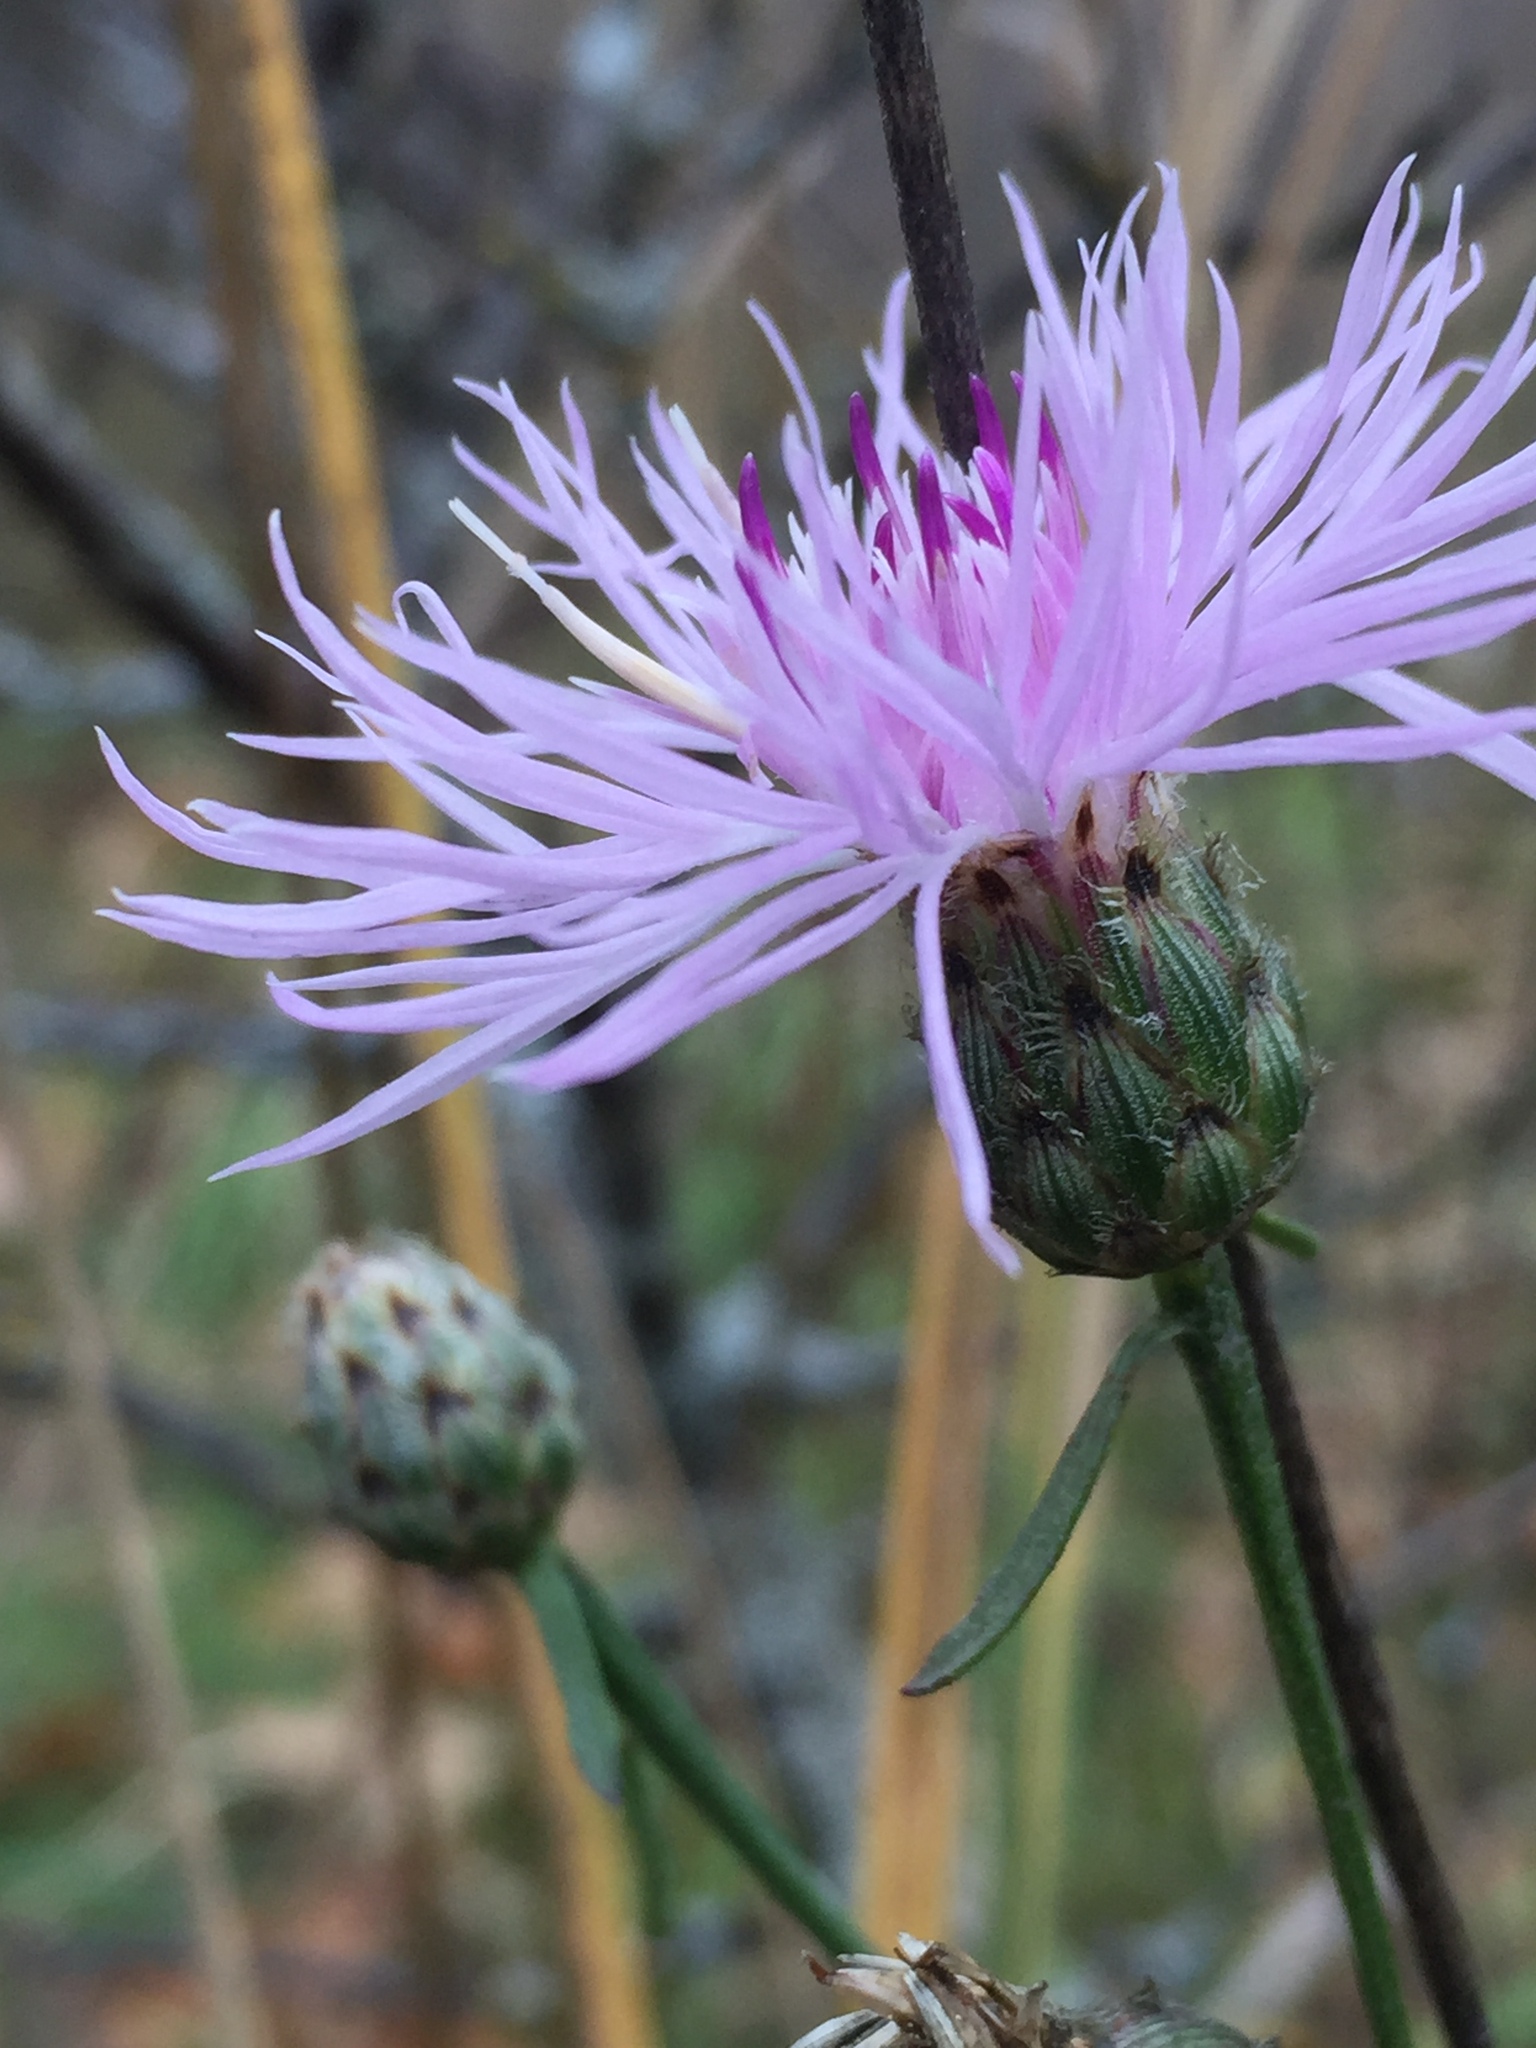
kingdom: Plantae
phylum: Tracheophyta
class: Magnoliopsida
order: Asterales
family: Asteraceae
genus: Centaurea
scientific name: Centaurea stoebe
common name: Spotted knapweed
